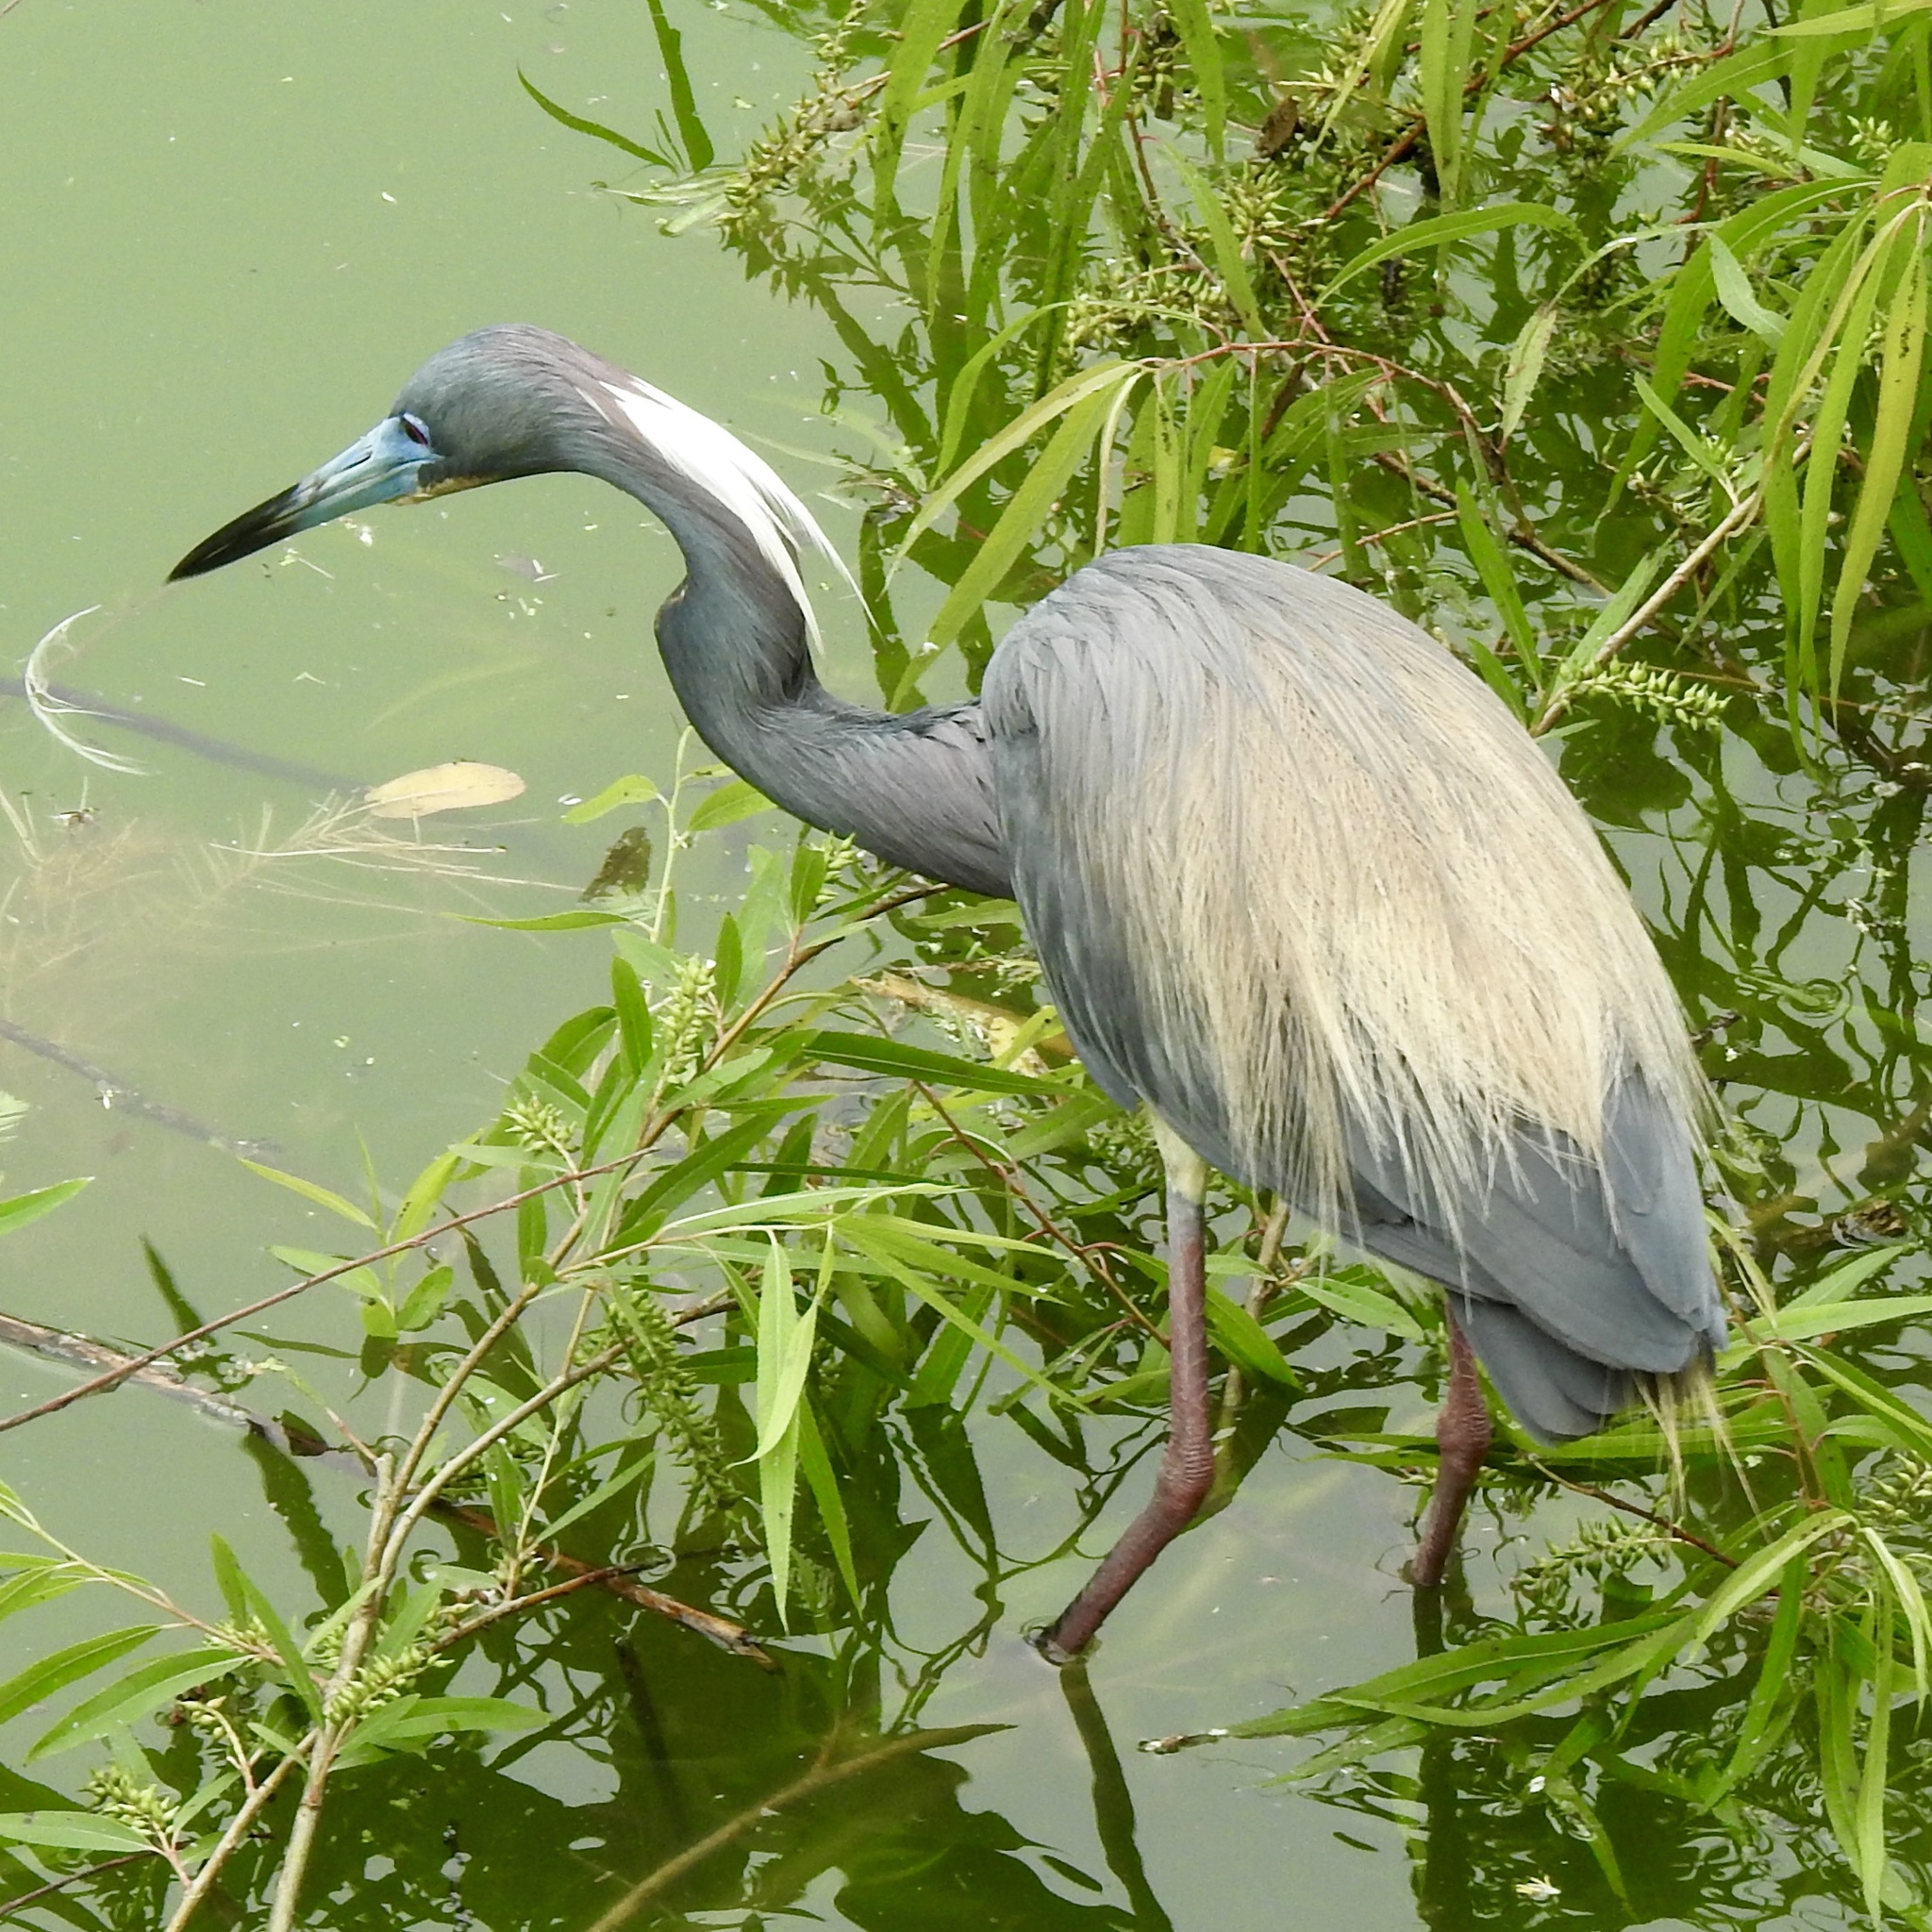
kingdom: Animalia
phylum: Chordata
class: Aves
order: Pelecaniformes
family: Ardeidae
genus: Egretta
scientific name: Egretta tricolor
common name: Tricolored heron
